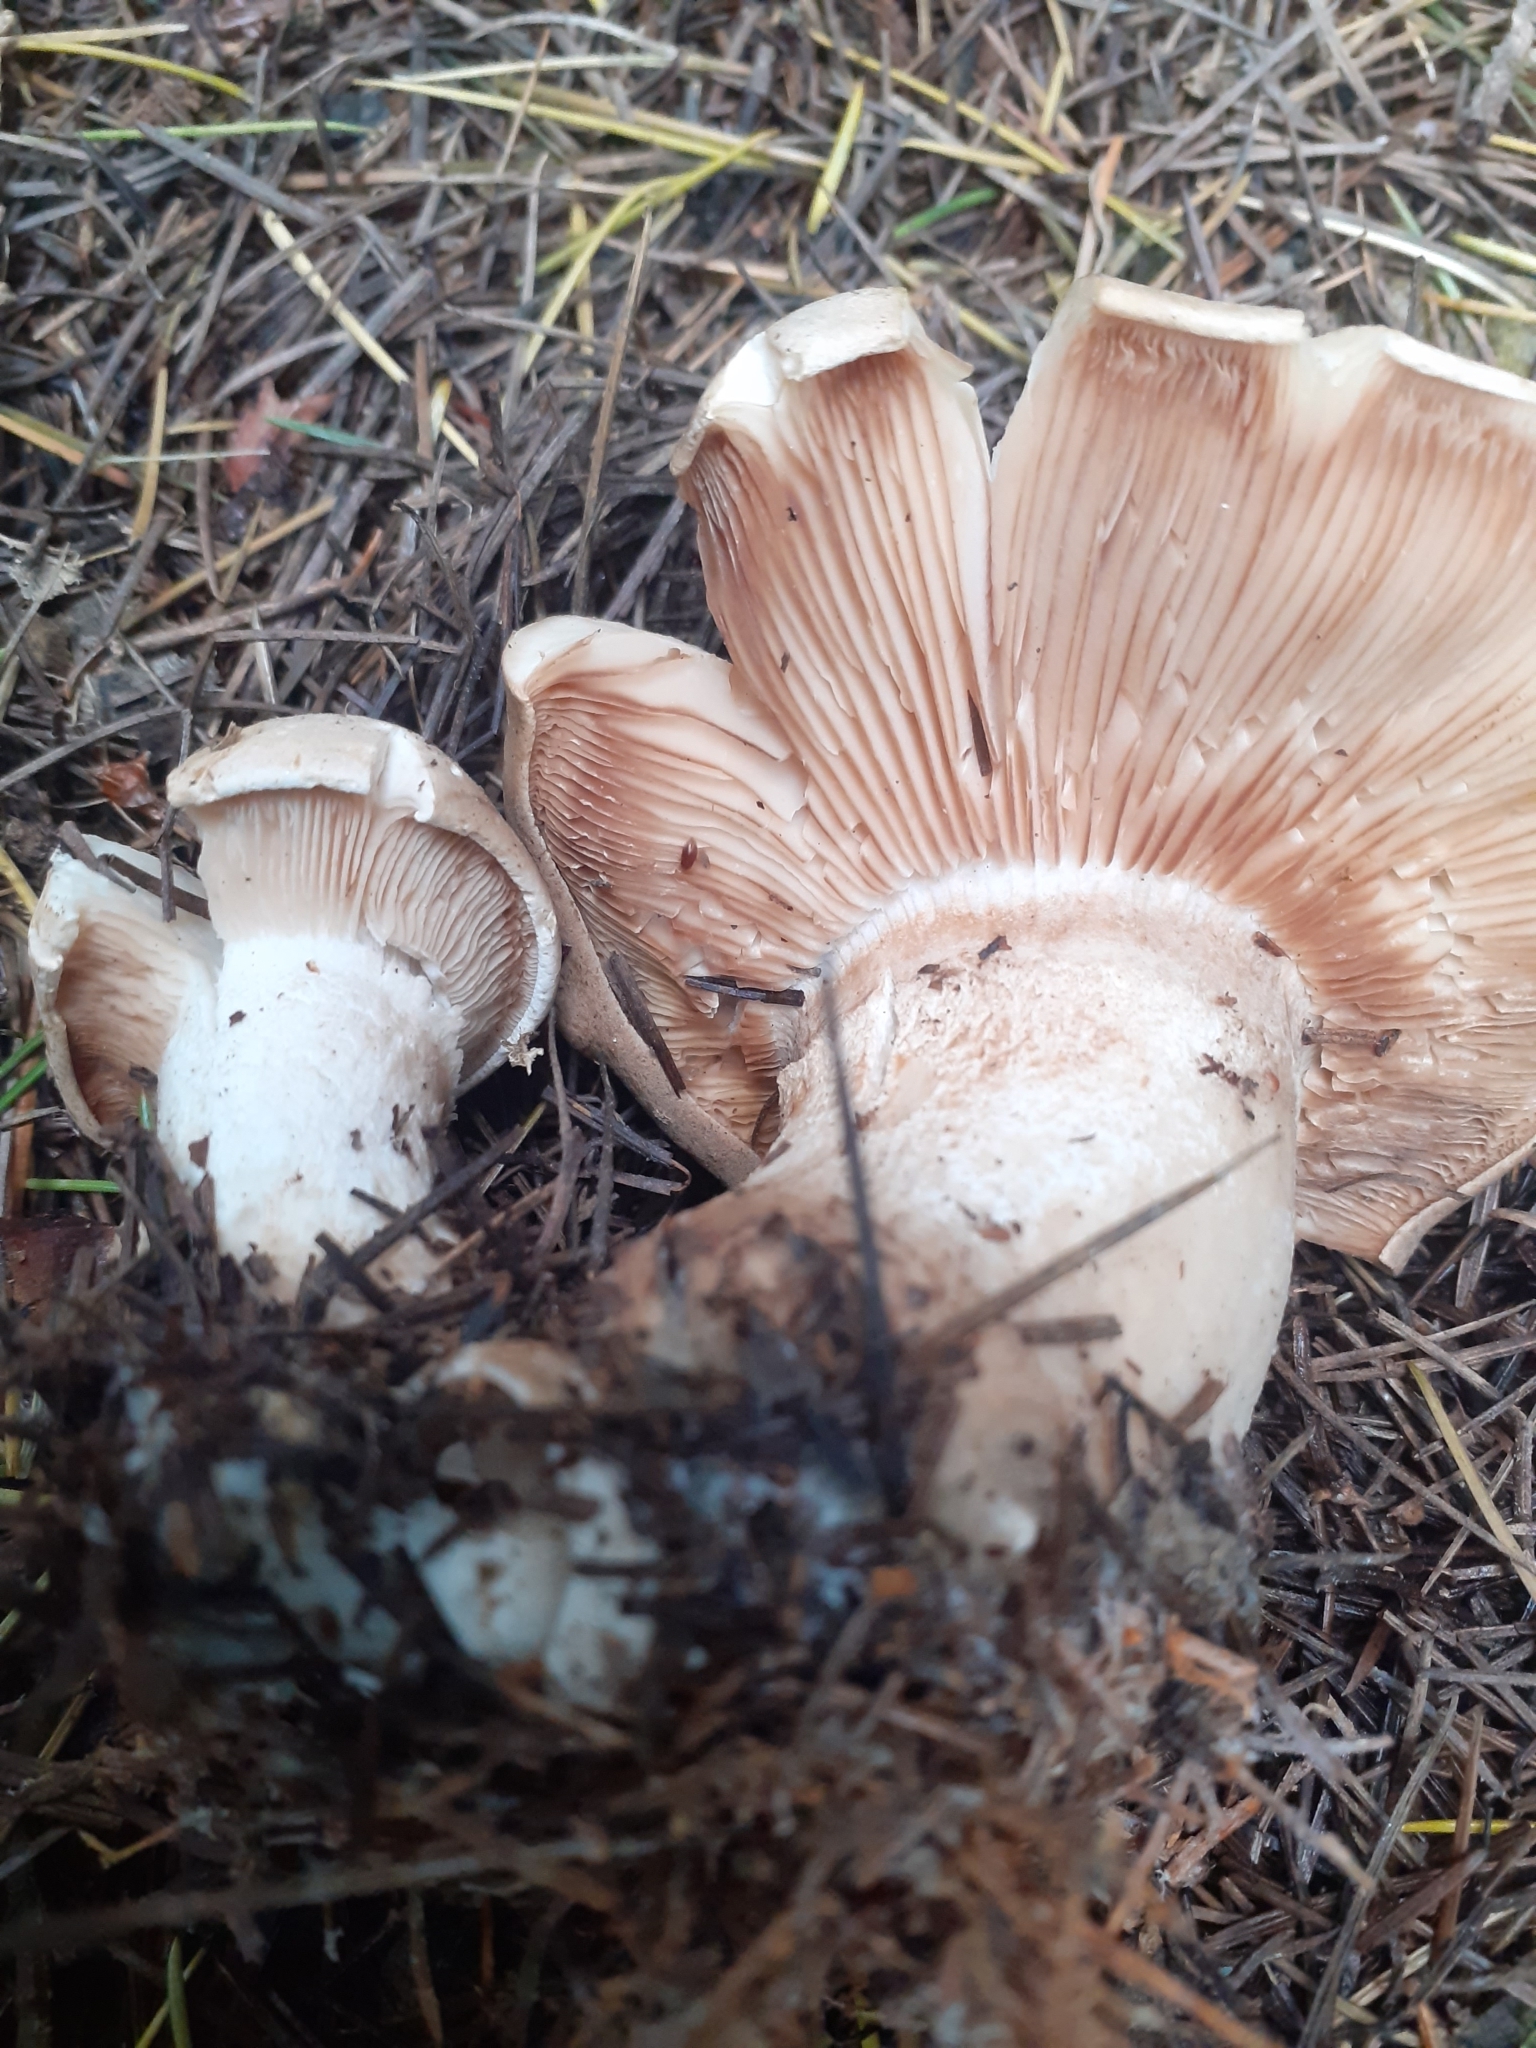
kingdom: Fungi
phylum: Basidiomycota
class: Agaricomycetes
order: Agaricales
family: Tricholomataceae
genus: Clitocybe
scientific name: Clitocybe nebularis
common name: Clouded agaric
